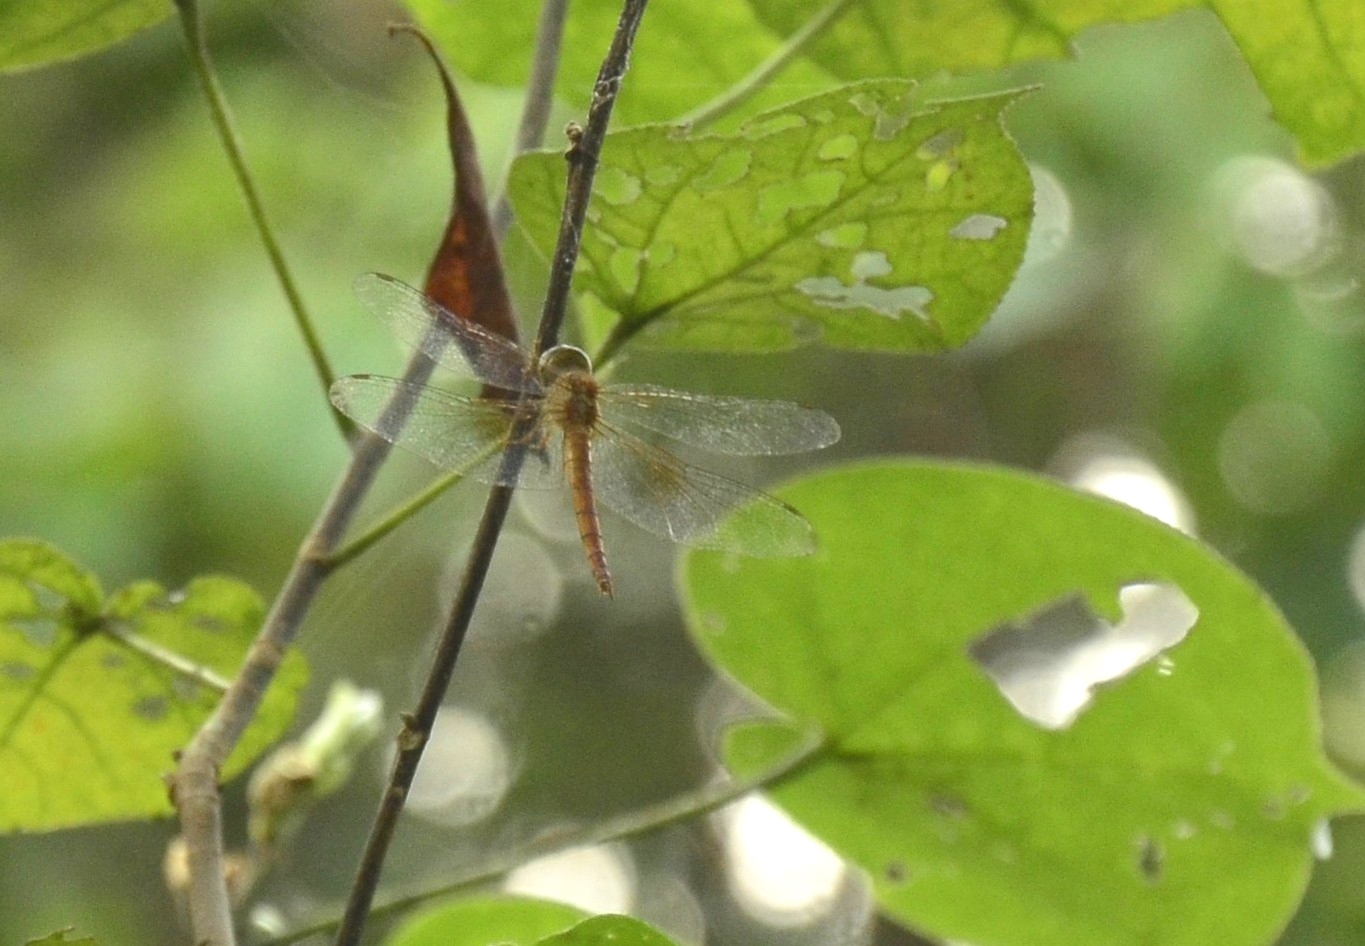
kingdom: Animalia
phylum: Arthropoda
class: Insecta
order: Odonata
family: Libellulidae
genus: Tholymis
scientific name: Tholymis tillarga
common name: Coral-tailed cloud wing
